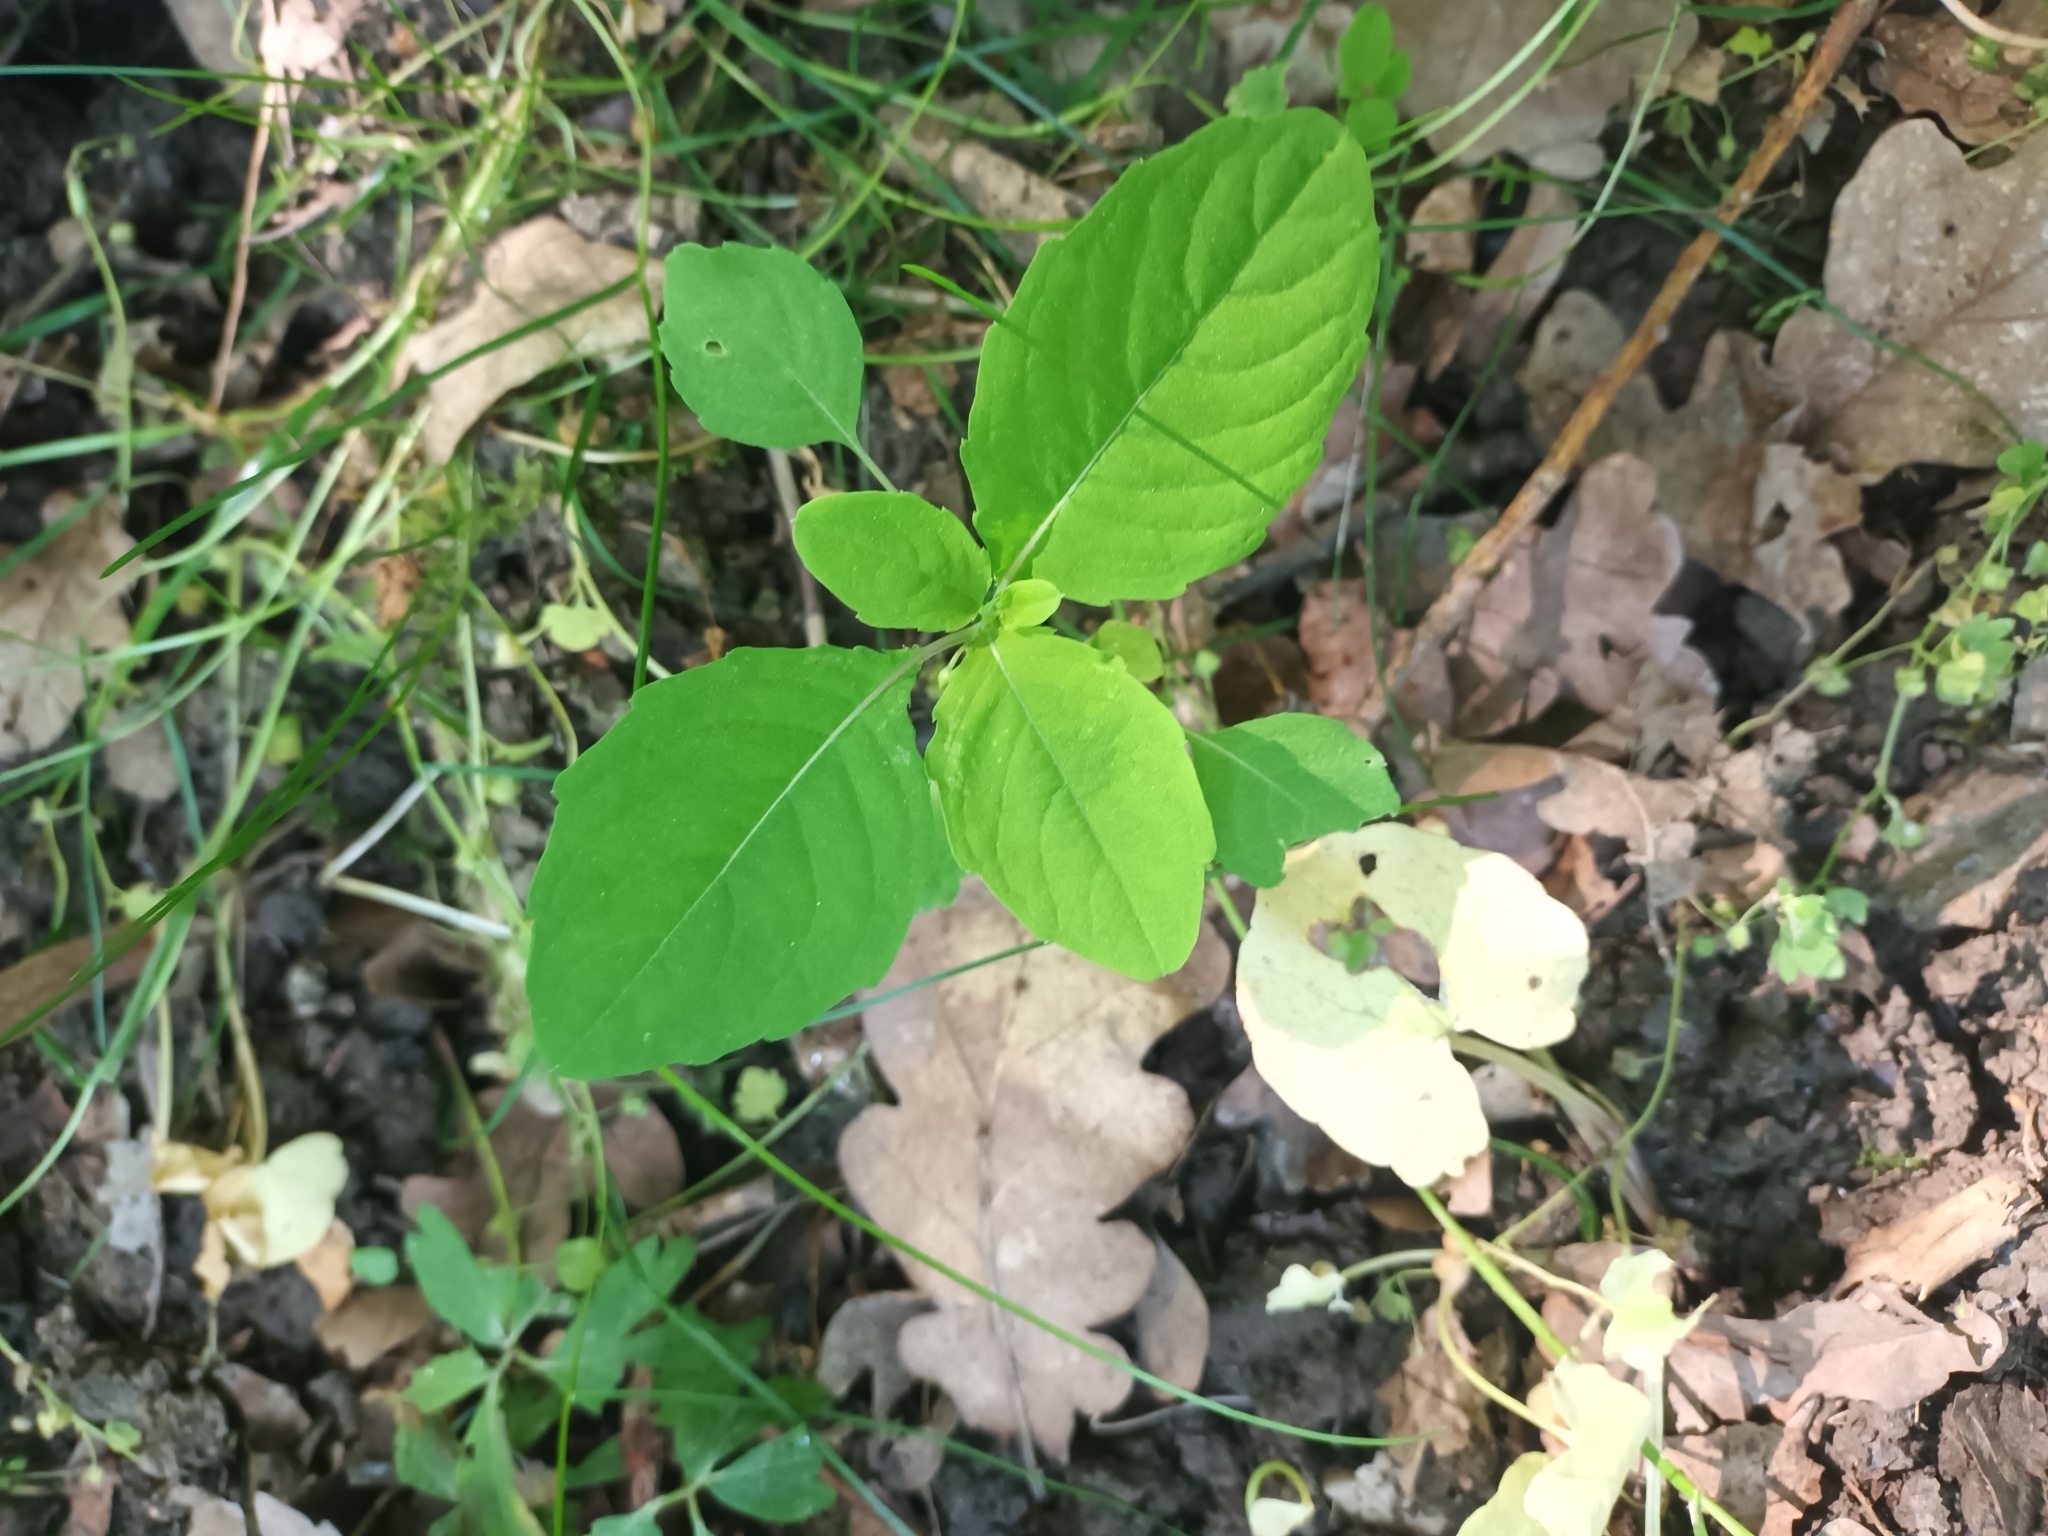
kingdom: Plantae
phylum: Tracheophyta
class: Magnoliopsida
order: Ericales
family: Balsaminaceae
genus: Impatiens
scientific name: Impatiens noli-tangere
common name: Touch-me-not balsam
